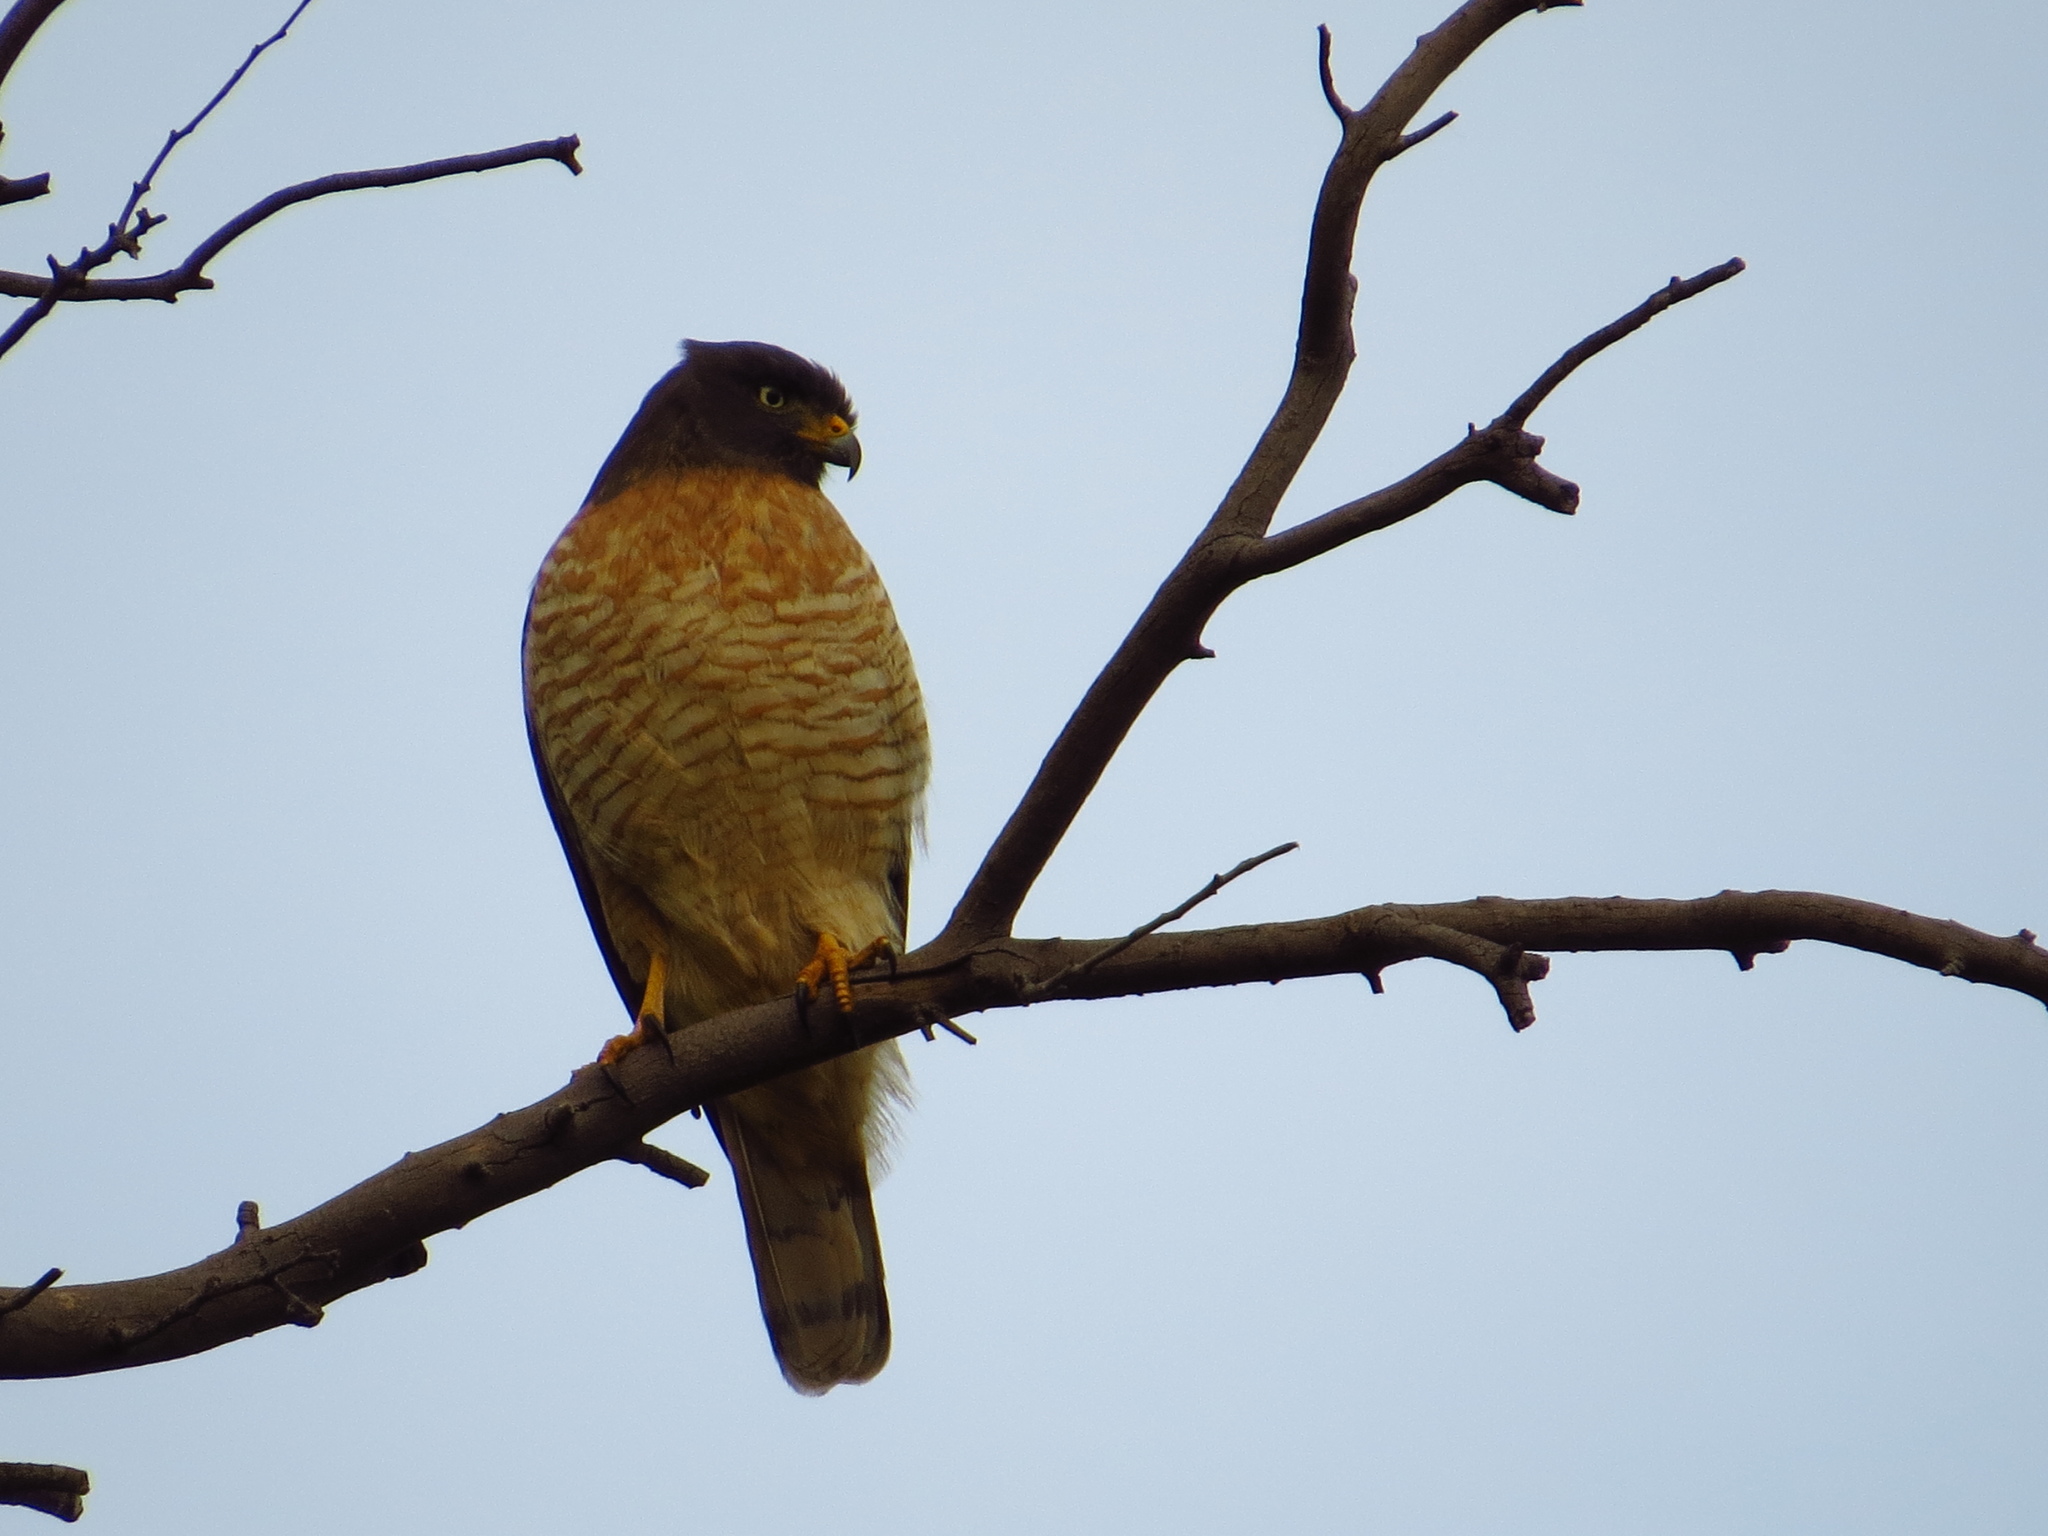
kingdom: Animalia
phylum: Chordata
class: Aves
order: Accipitriformes
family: Accipitridae
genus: Rupornis
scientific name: Rupornis magnirostris
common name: Roadside hawk
